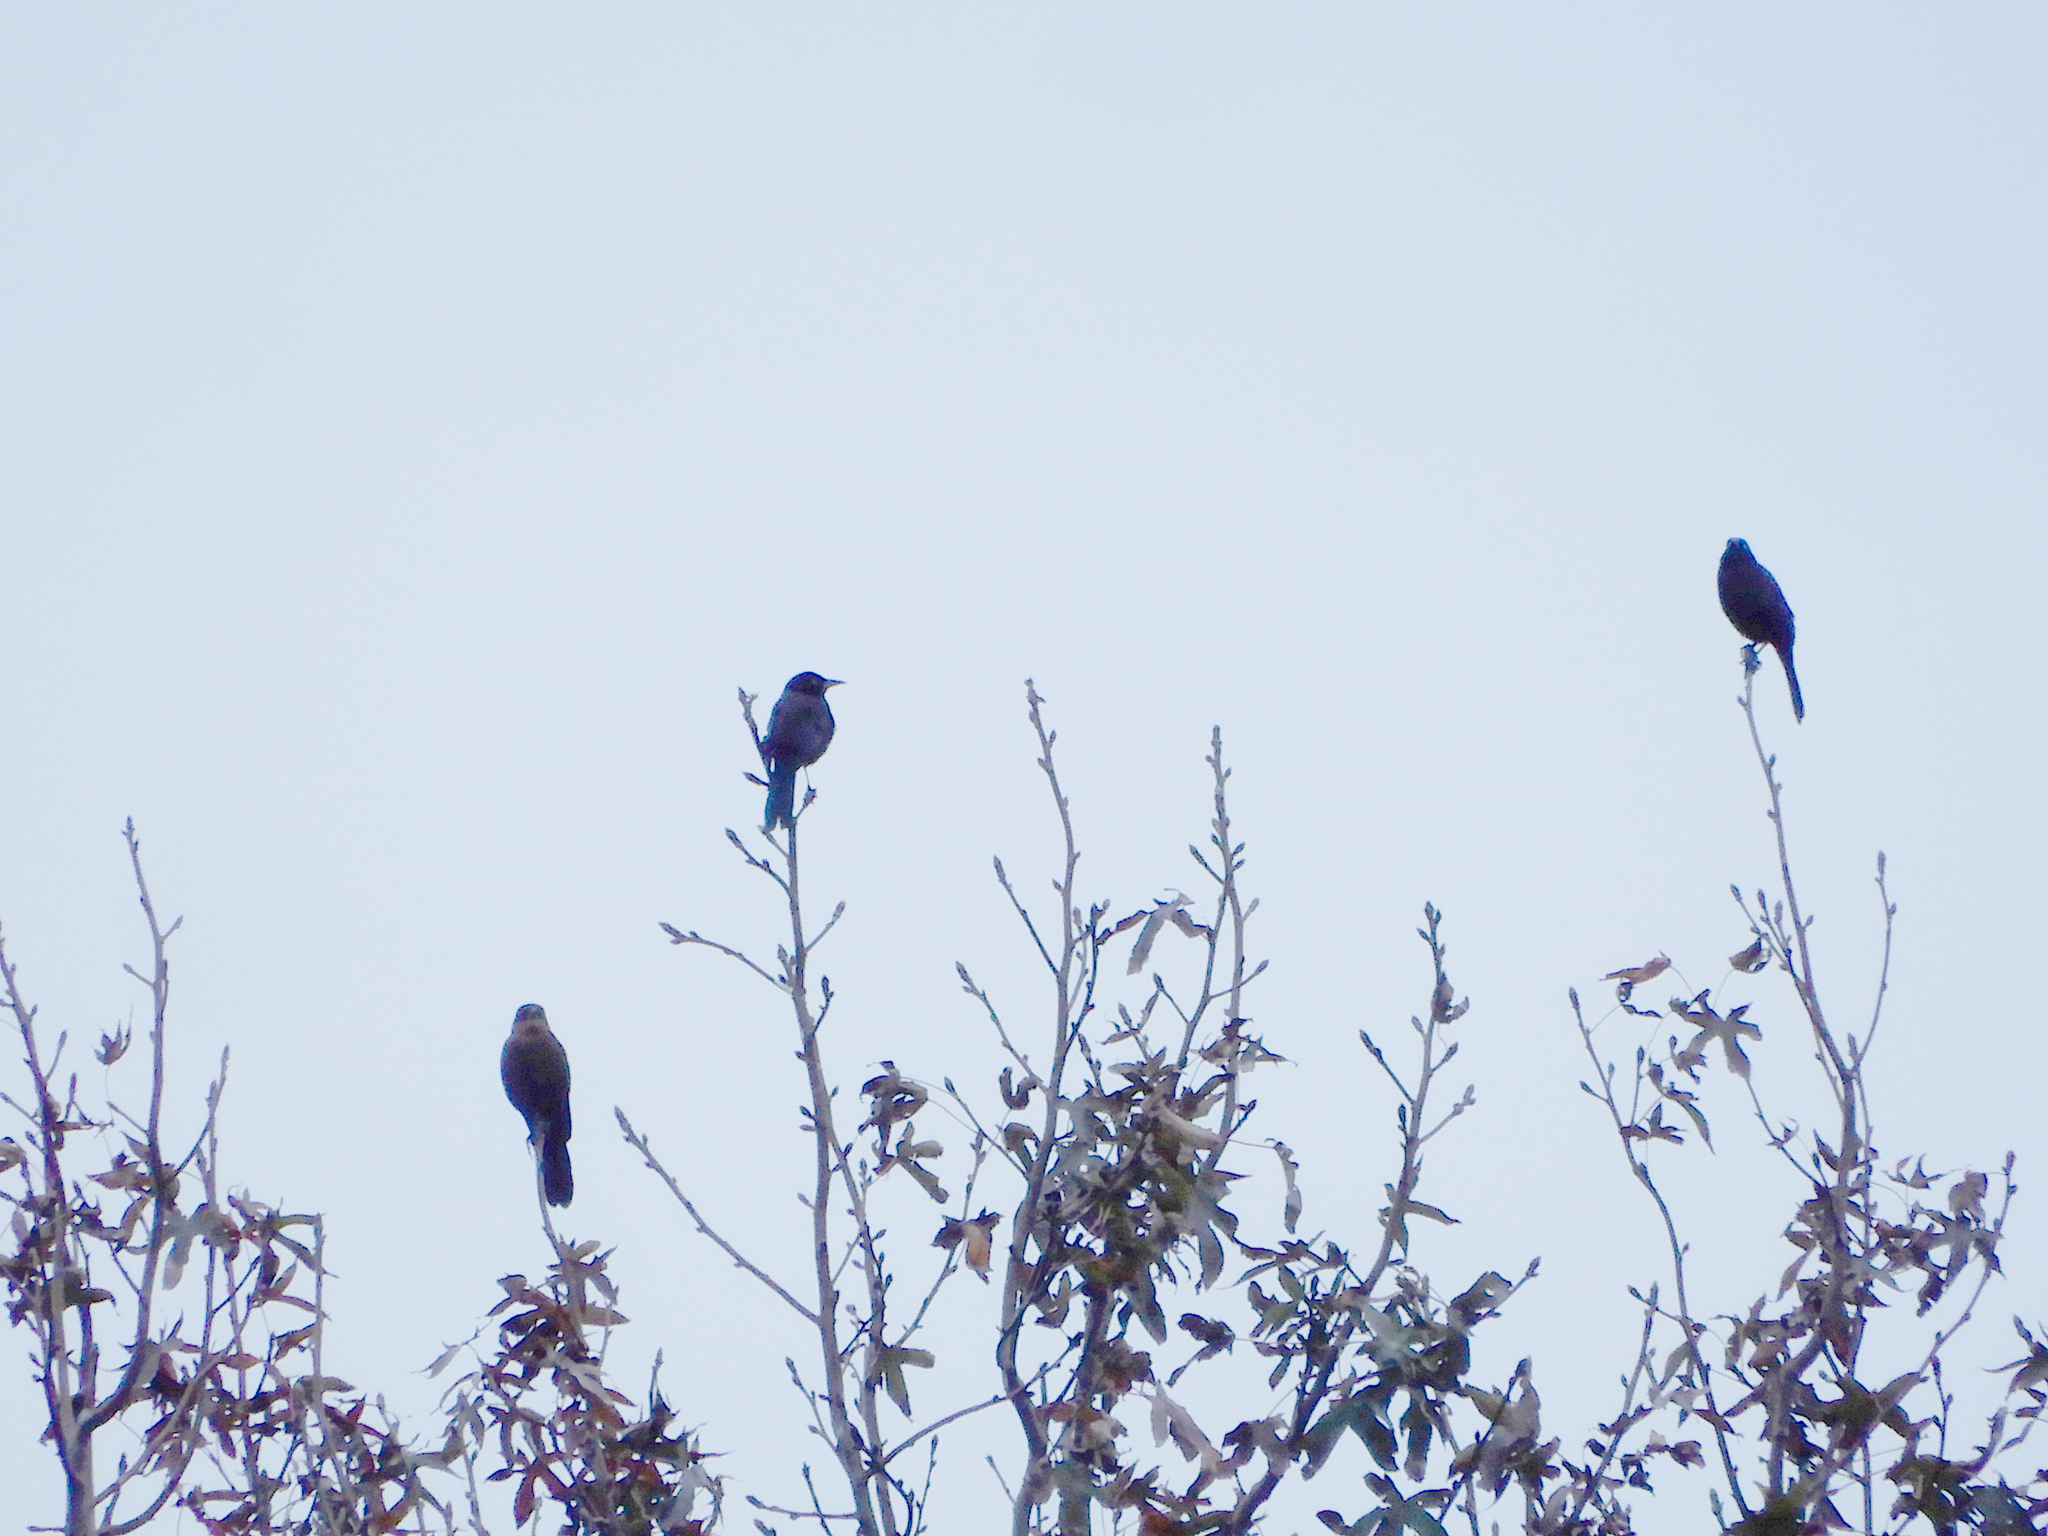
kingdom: Animalia
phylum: Chordata
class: Aves
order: Passeriformes
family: Icteridae
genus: Quiscalus
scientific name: Quiscalus major
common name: Boat-tailed grackle
